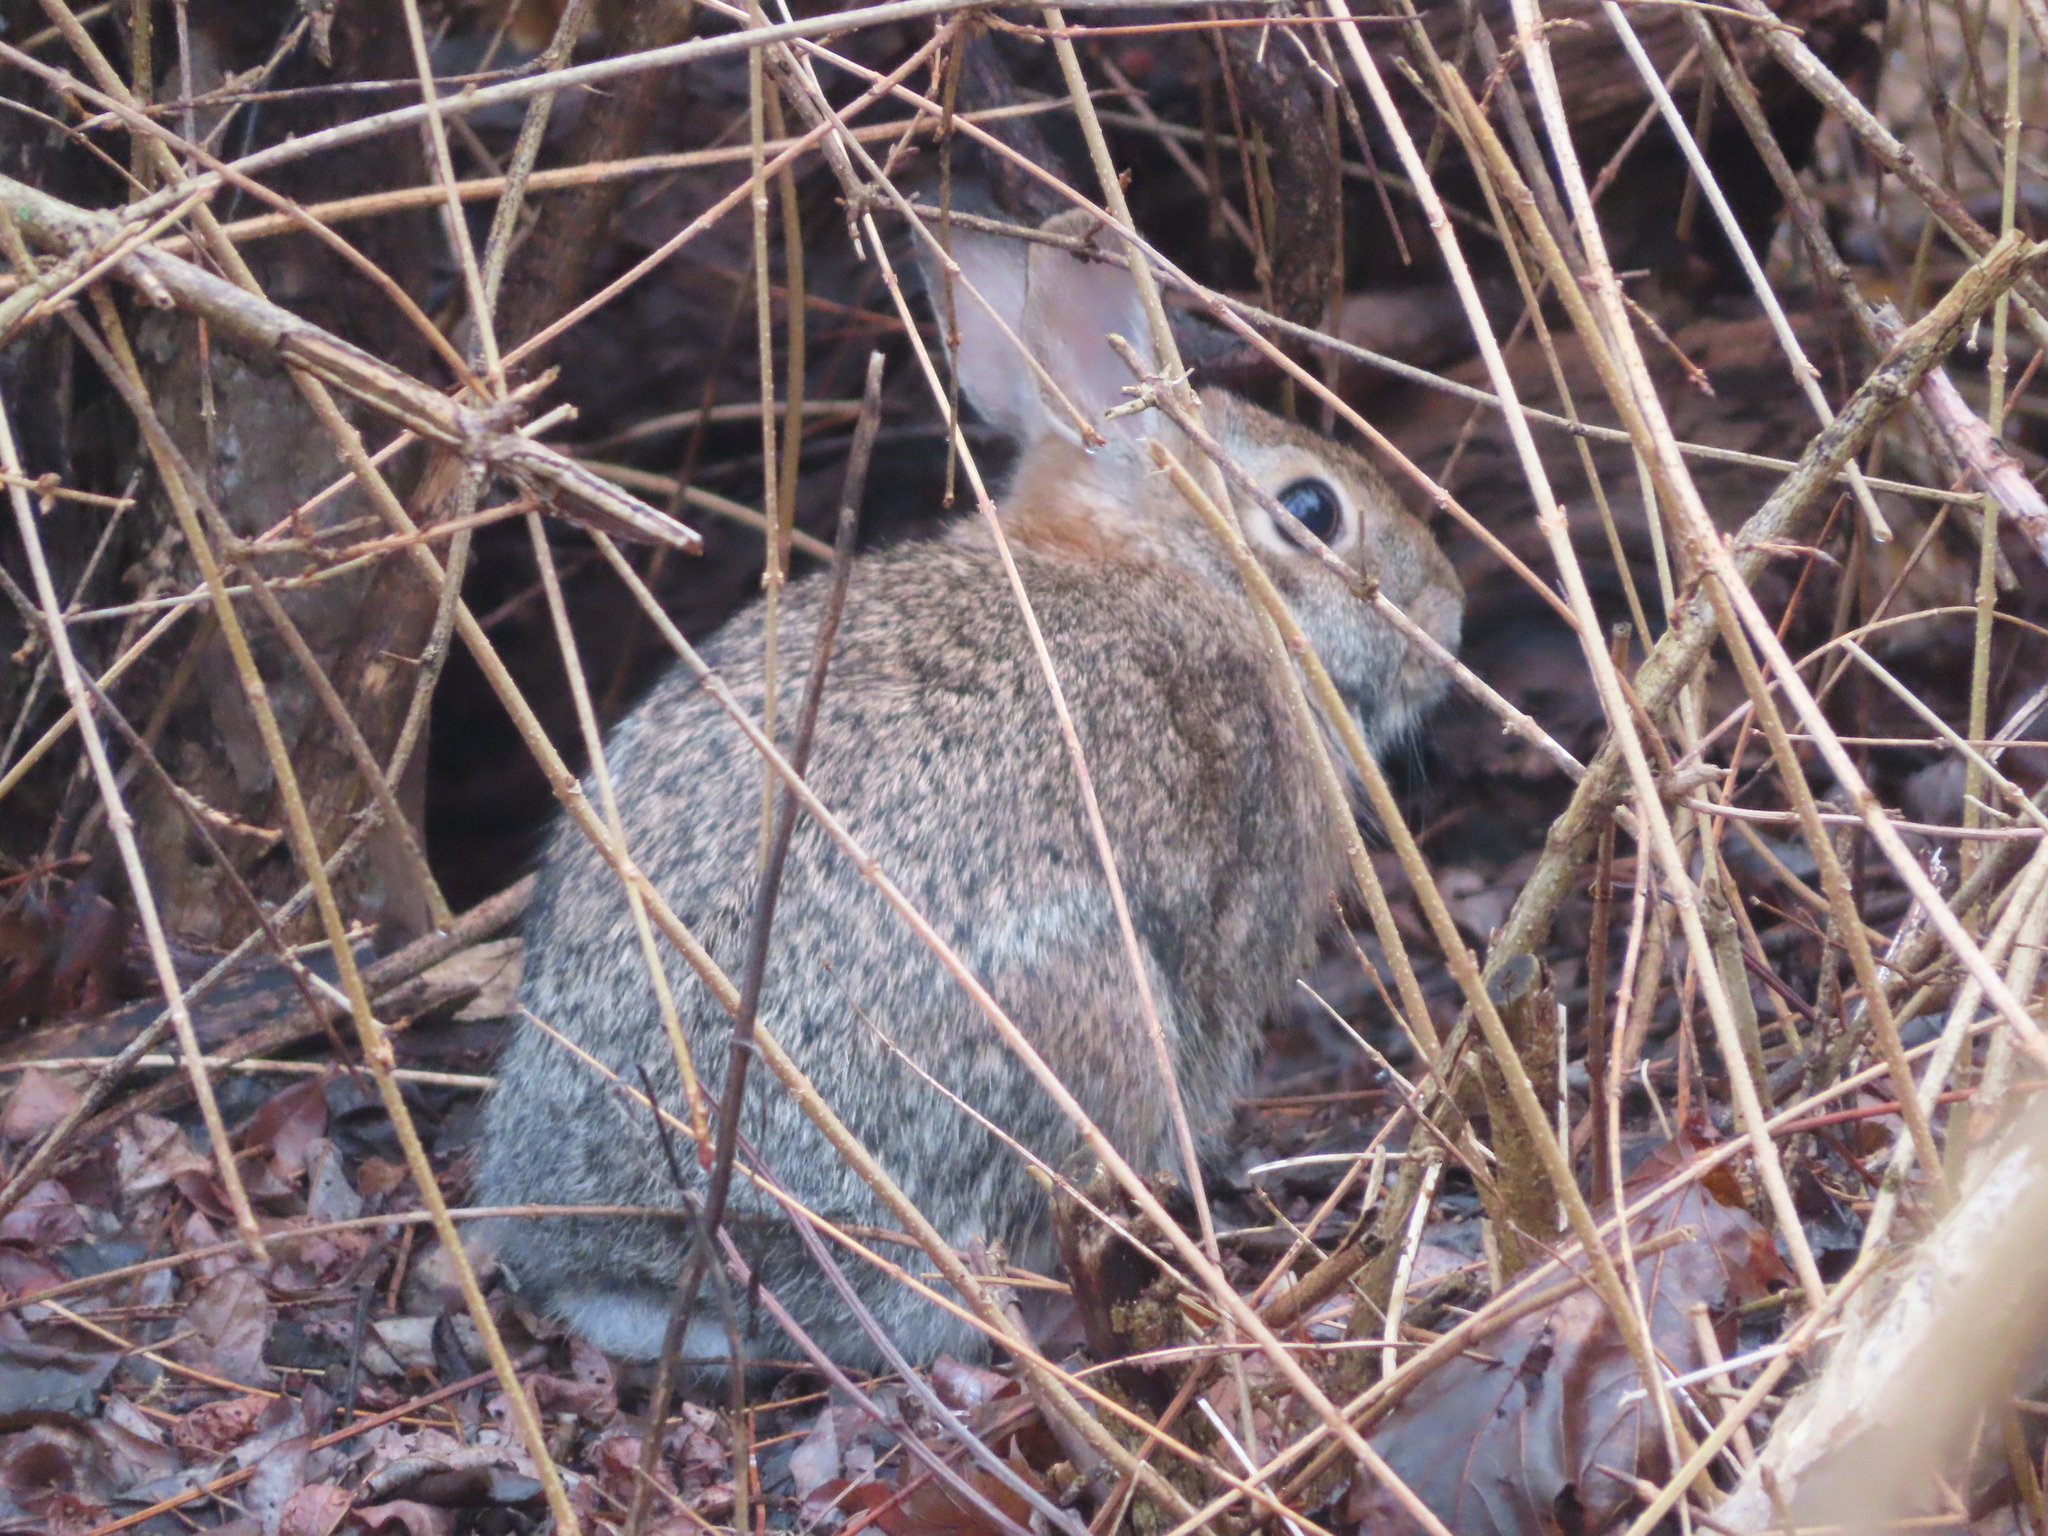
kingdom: Animalia
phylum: Chordata
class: Mammalia
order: Lagomorpha
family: Leporidae
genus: Sylvilagus
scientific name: Sylvilagus floridanus
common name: Eastern cottontail
